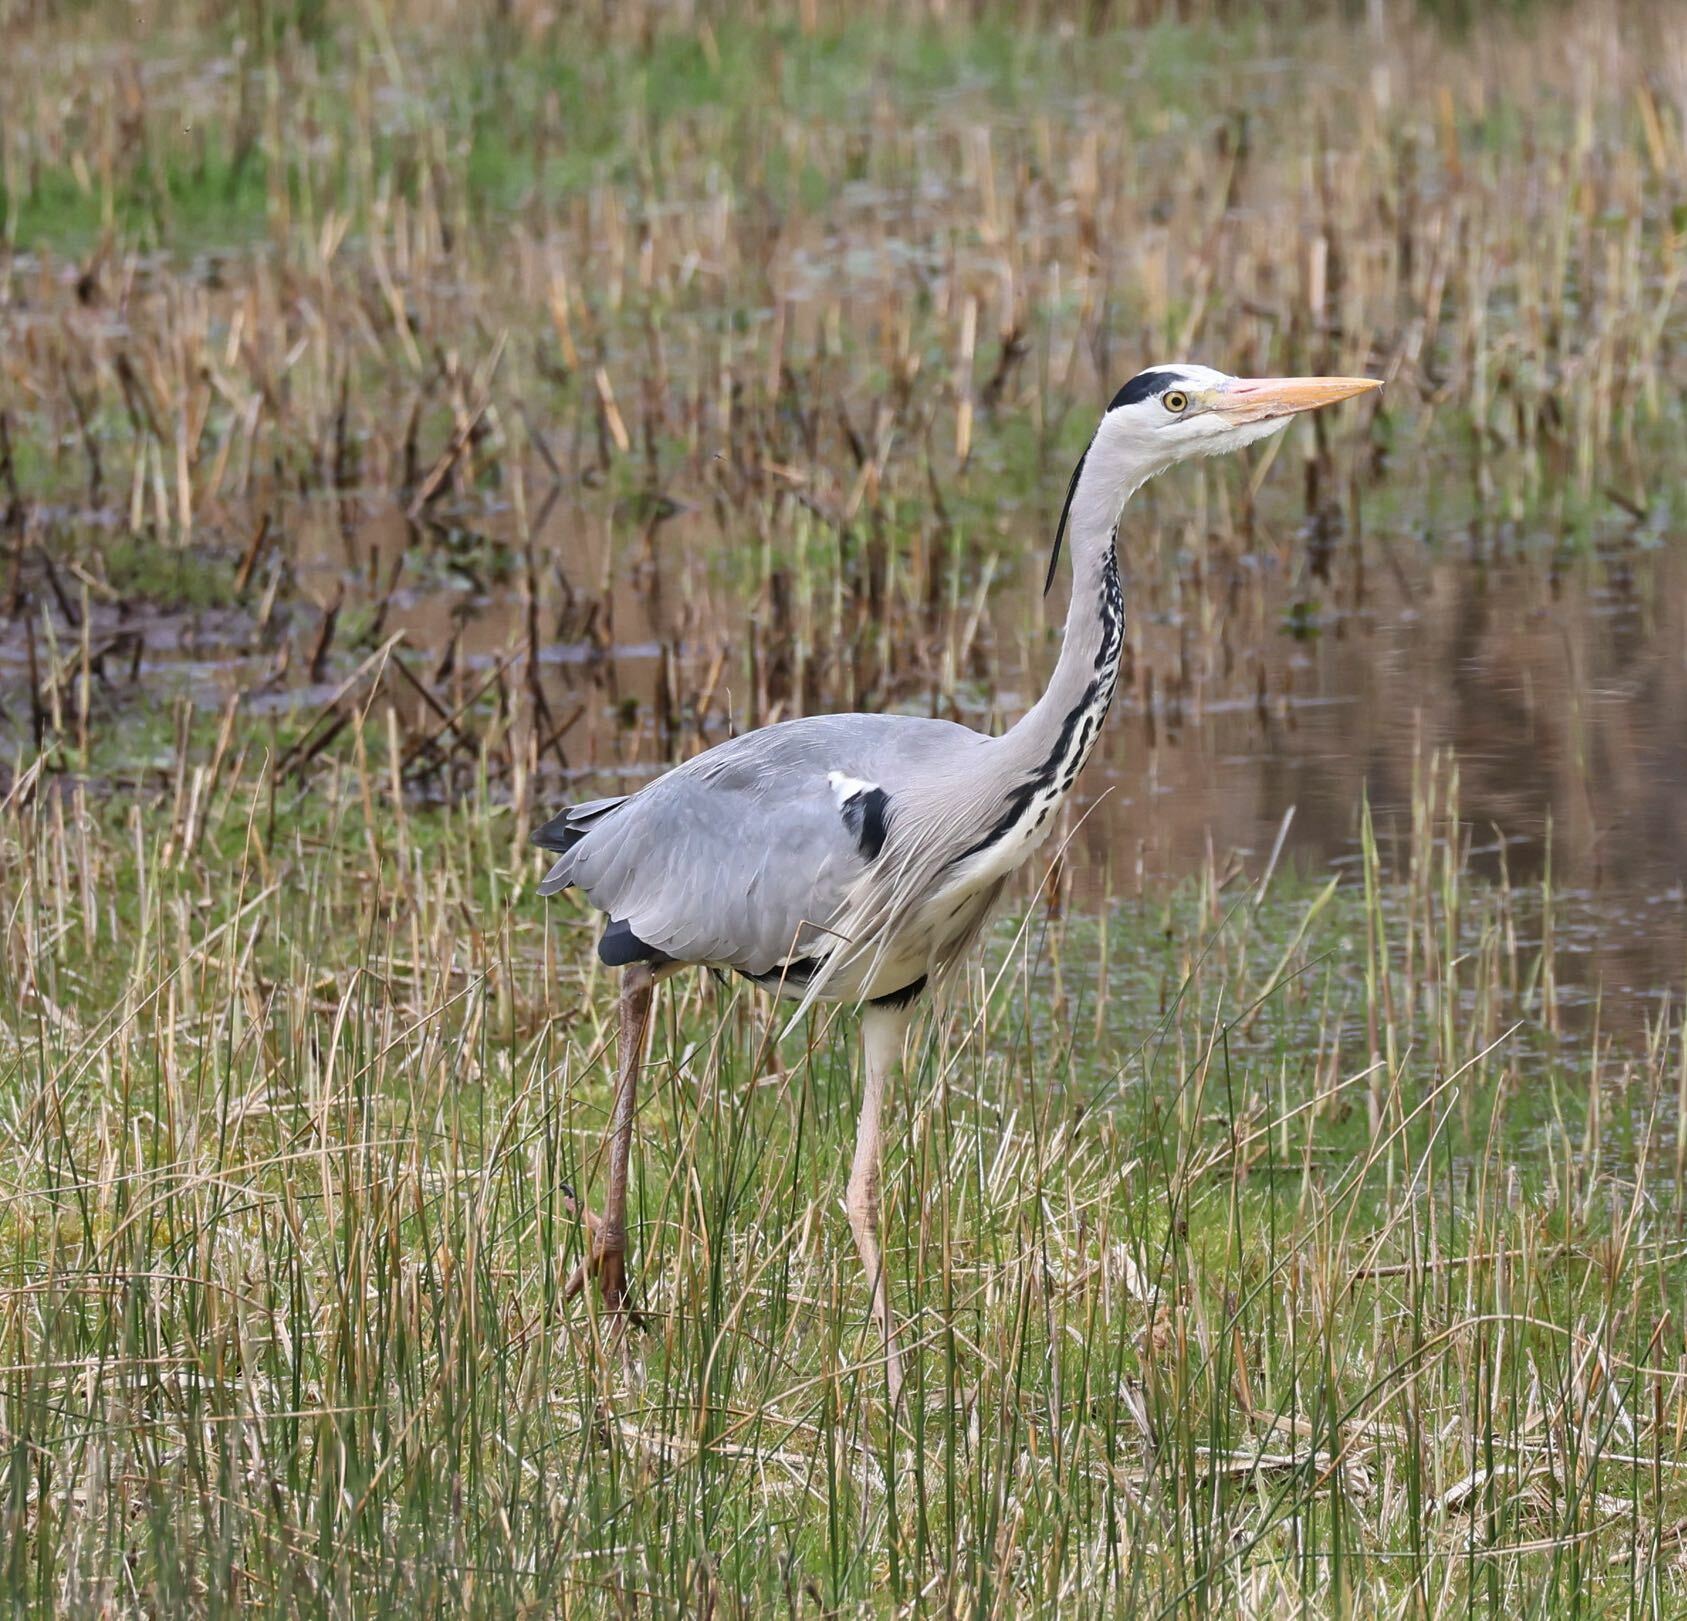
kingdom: Animalia
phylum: Chordata
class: Aves
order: Pelecaniformes
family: Ardeidae
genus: Ardea
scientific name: Ardea cinerea
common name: Grey heron
